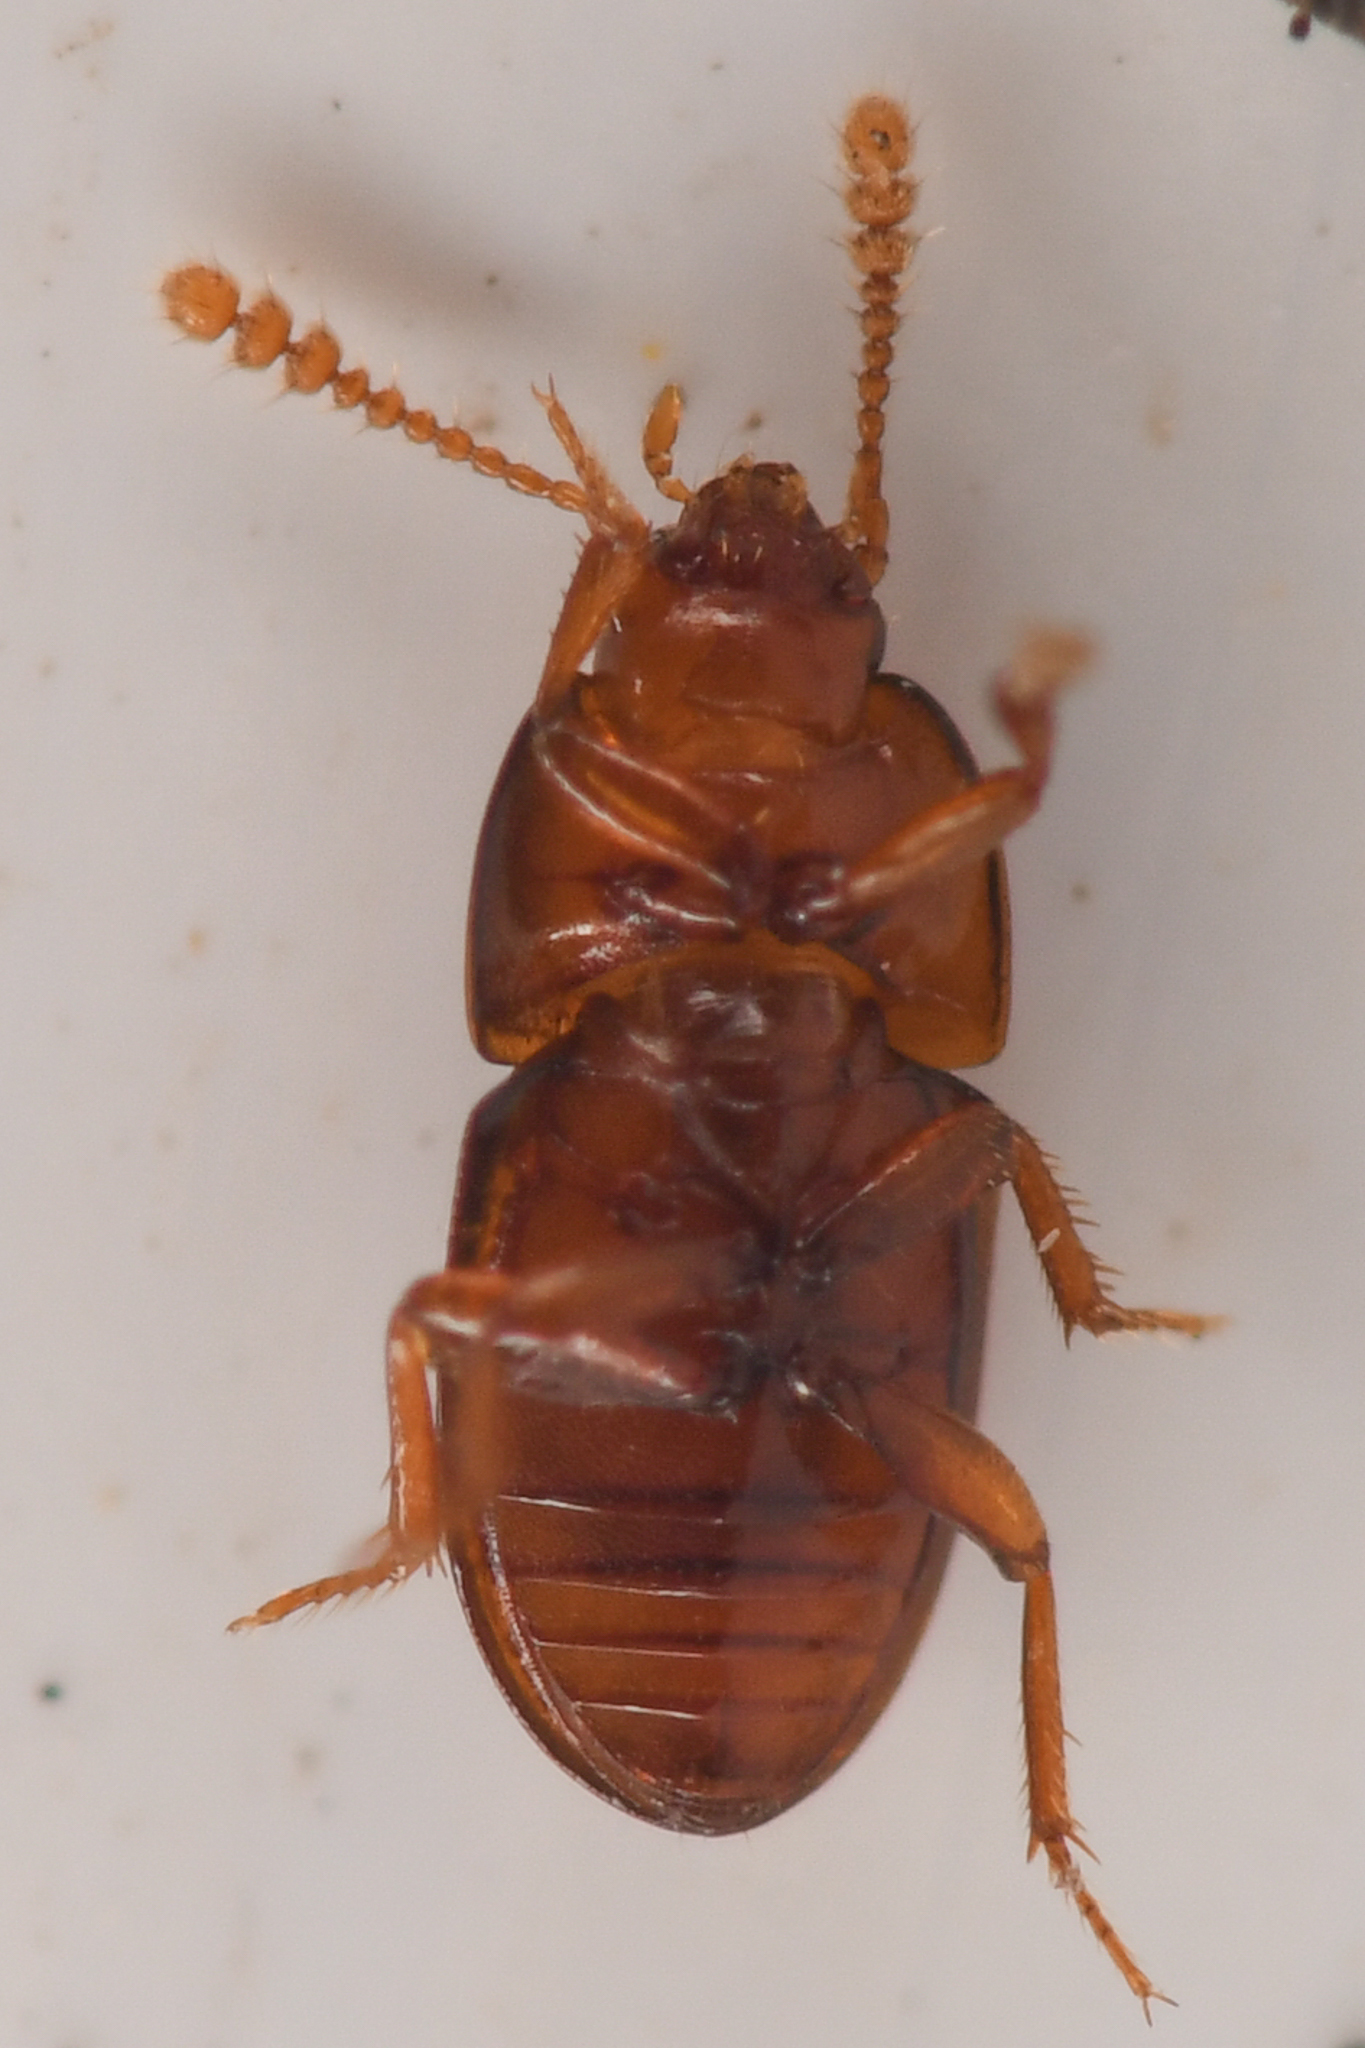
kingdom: Animalia
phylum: Arthropoda
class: Insecta
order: Coleoptera
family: Leiodidae
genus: Pinodytes
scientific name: Pinodytes gibbosus
